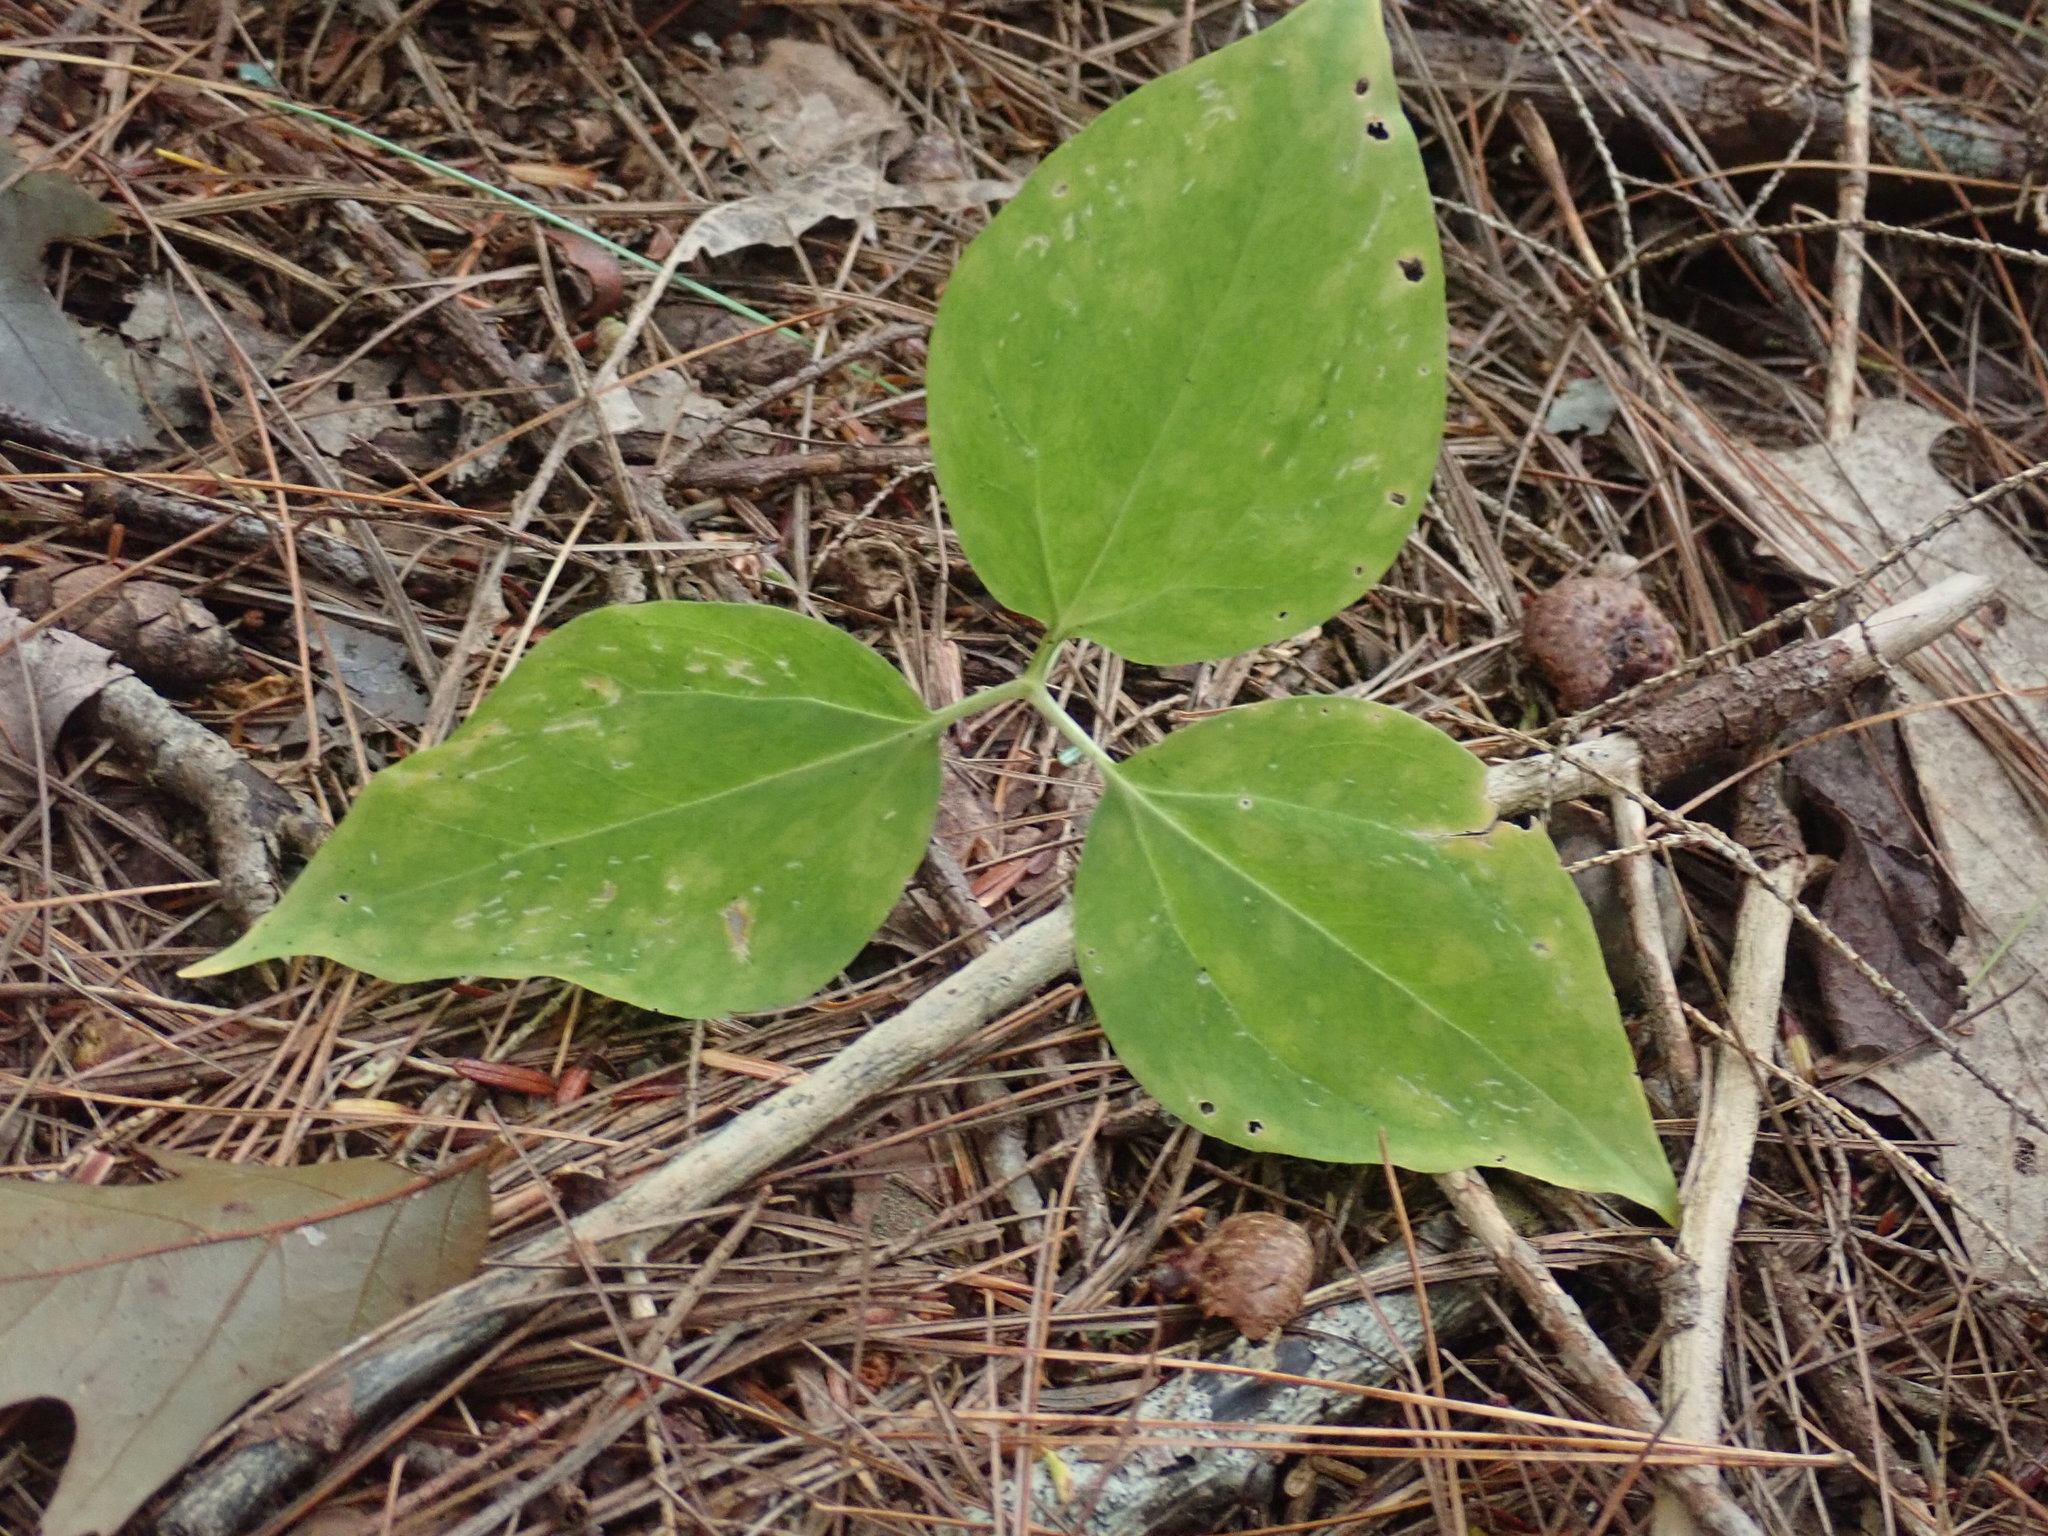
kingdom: Plantae
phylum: Tracheophyta
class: Liliopsida
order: Liliales
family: Melanthiaceae
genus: Trillium
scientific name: Trillium undulatum
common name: Paint trillium
